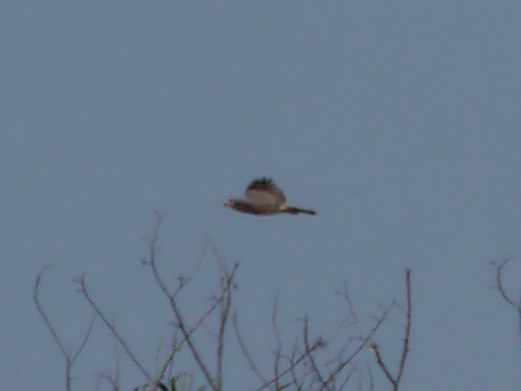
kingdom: Animalia
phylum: Chordata
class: Aves
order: Accipitriformes
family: Accipitridae
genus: Rupornis
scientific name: Rupornis magnirostris
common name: Roadside hawk
